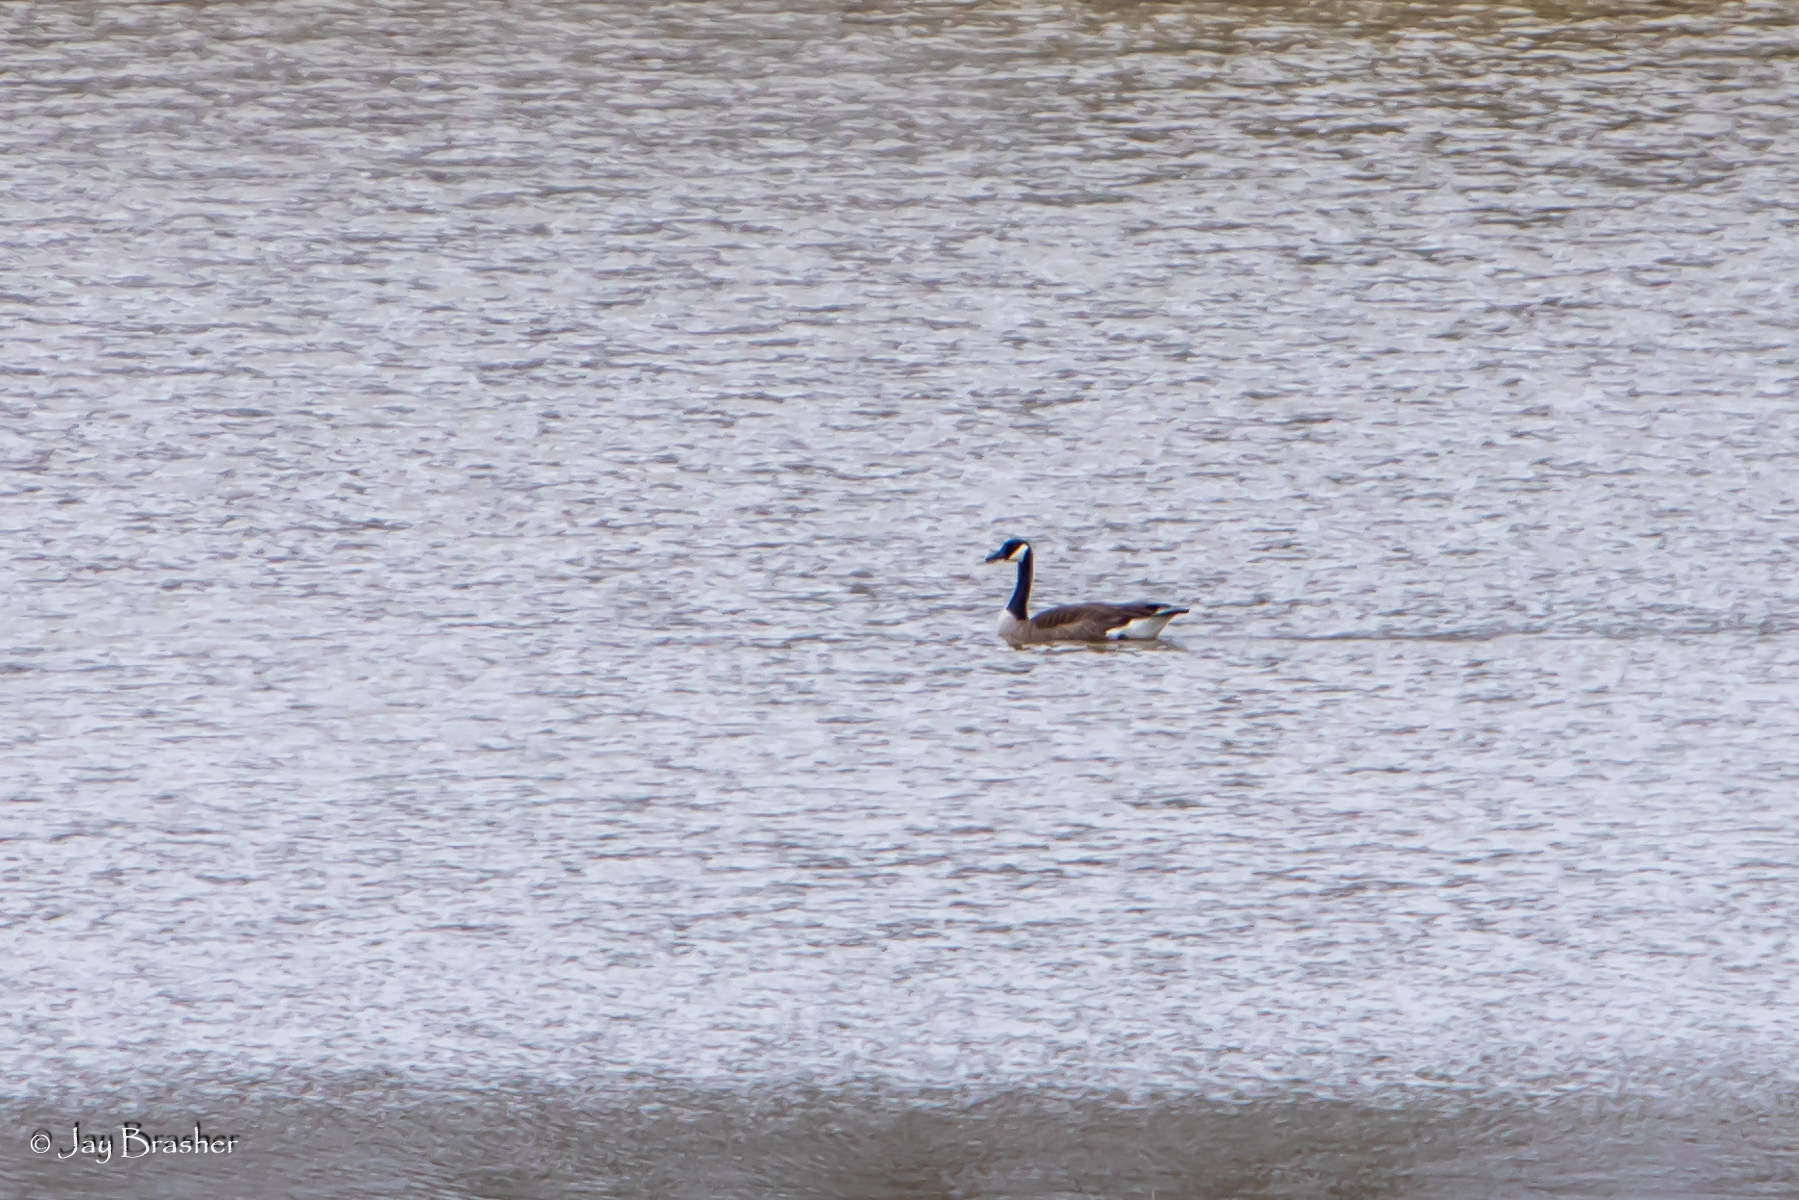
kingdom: Animalia
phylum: Chordata
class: Aves
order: Anseriformes
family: Anatidae
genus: Branta
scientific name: Branta canadensis
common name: Canada goose
